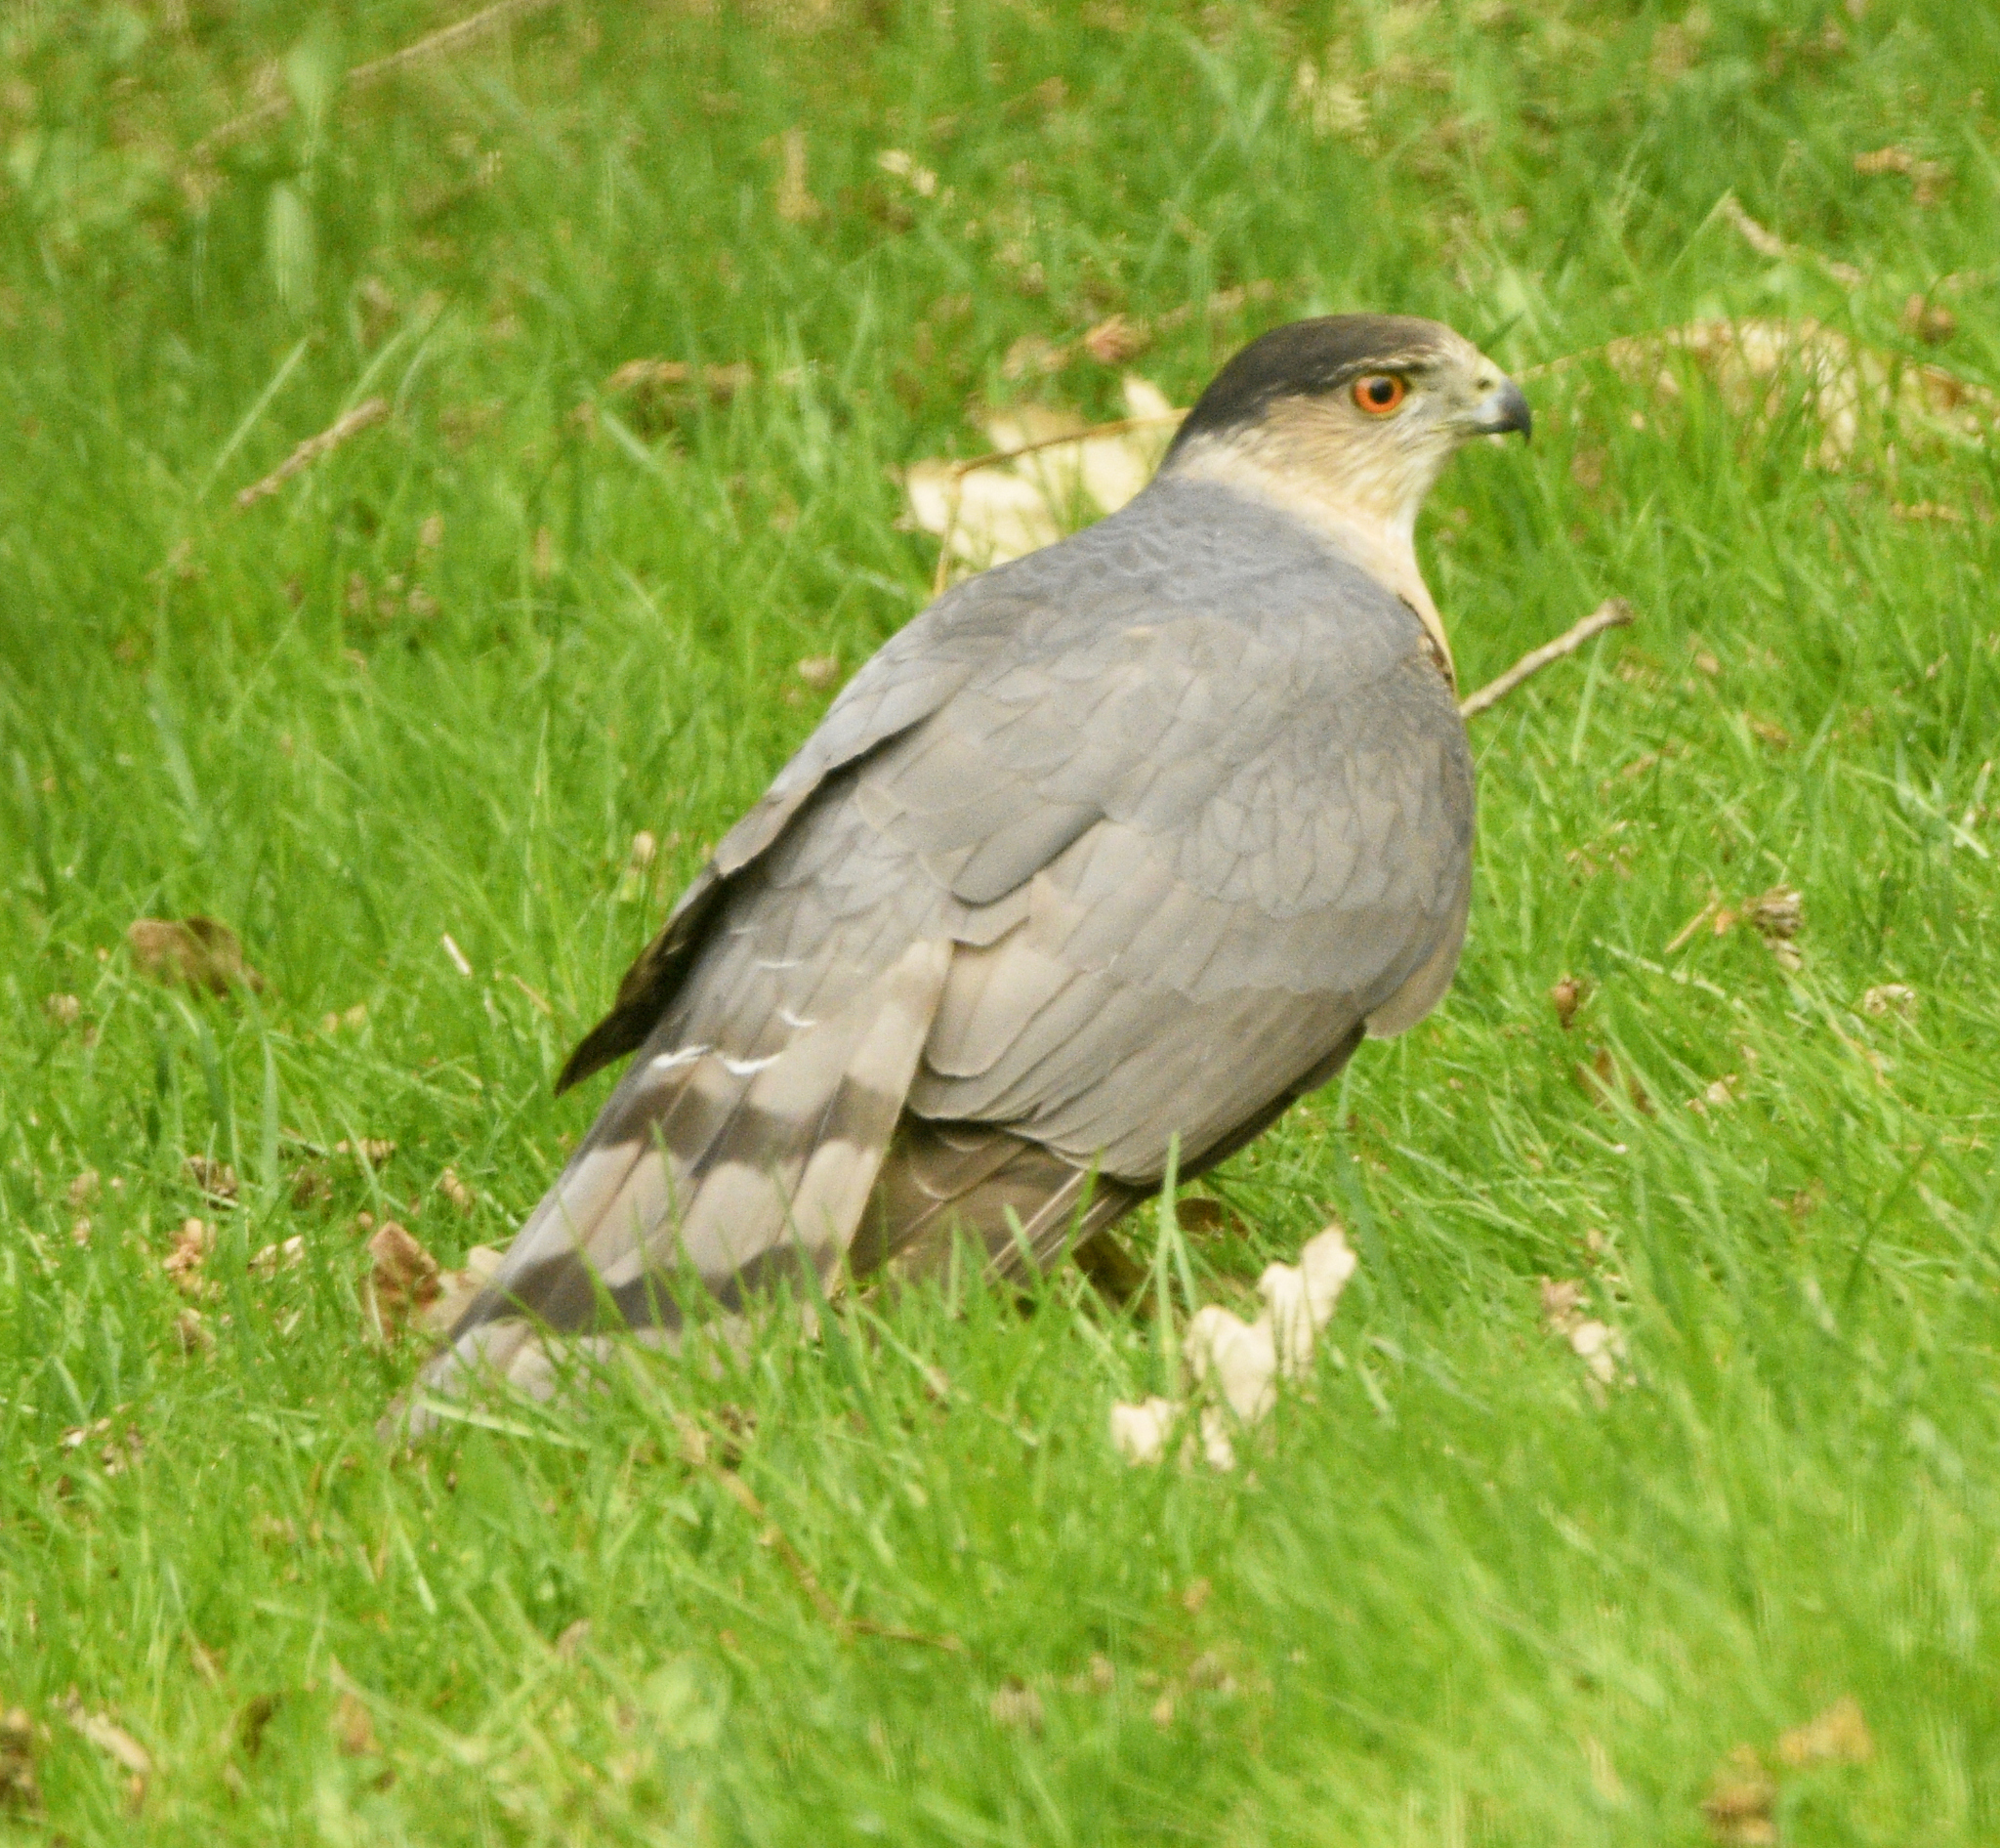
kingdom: Animalia
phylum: Chordata
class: Aves
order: Accipitriformes
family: Accipitridae
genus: Accipiter
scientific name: Accipiter cooperii
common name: Cooper's hawk
